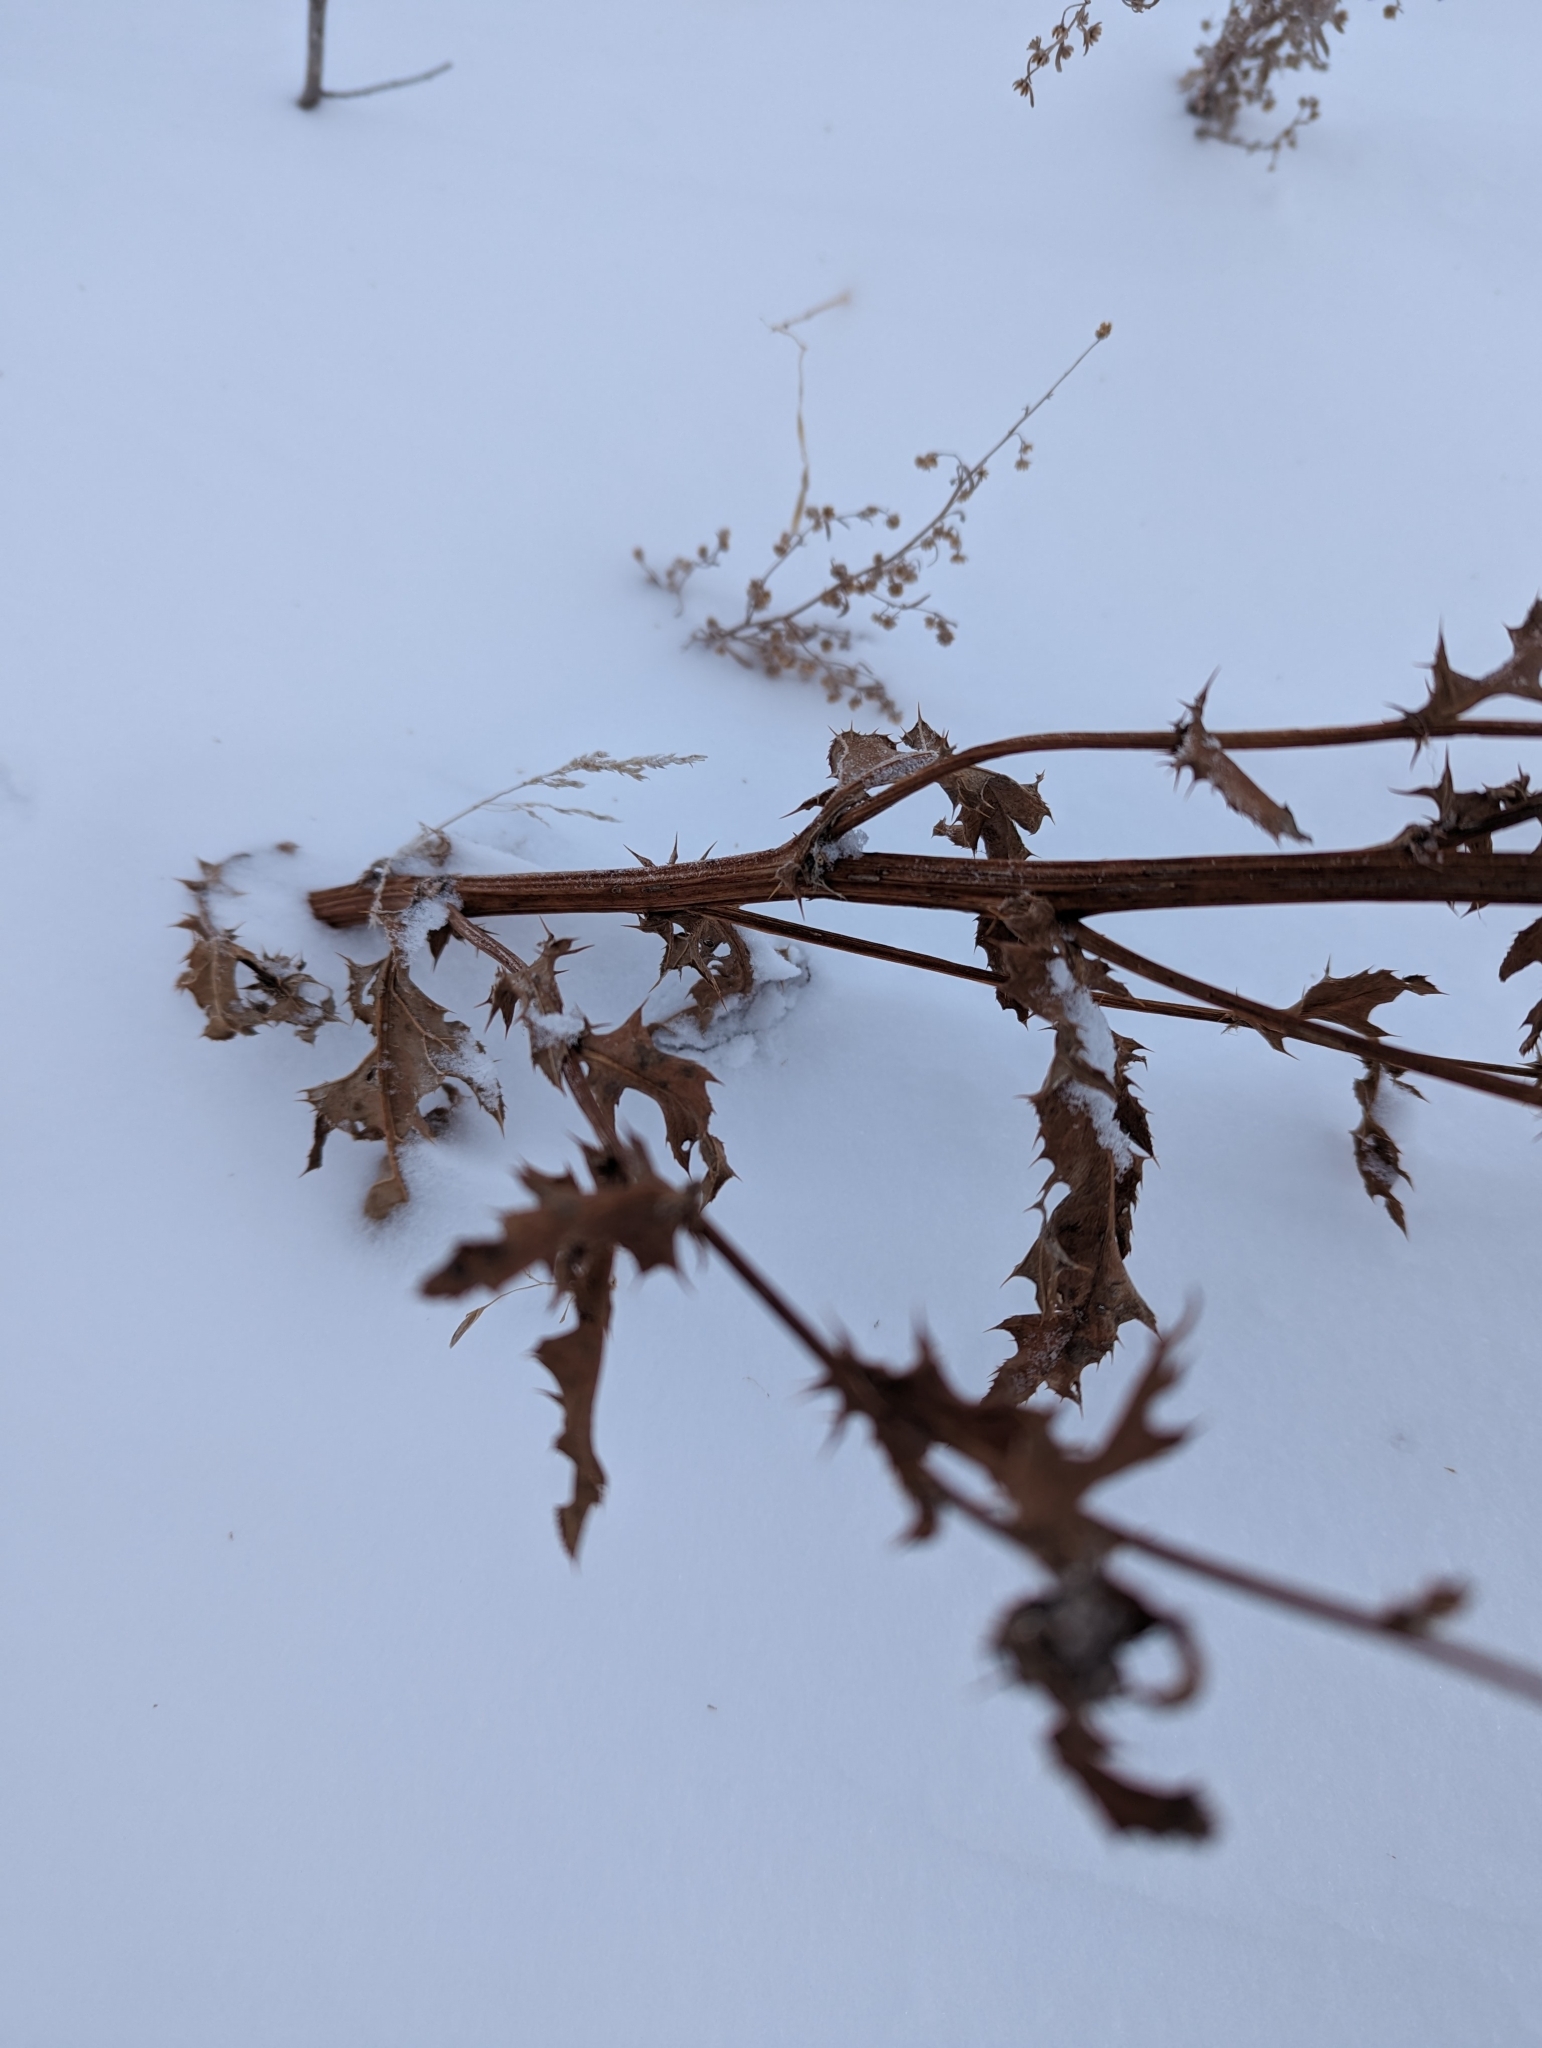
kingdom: Plantae
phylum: Tracheophyta
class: Magnoliopsida
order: Asterales
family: Asteraceae
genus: Cirsium
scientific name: Cirsium arvense
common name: Creeping thistle
